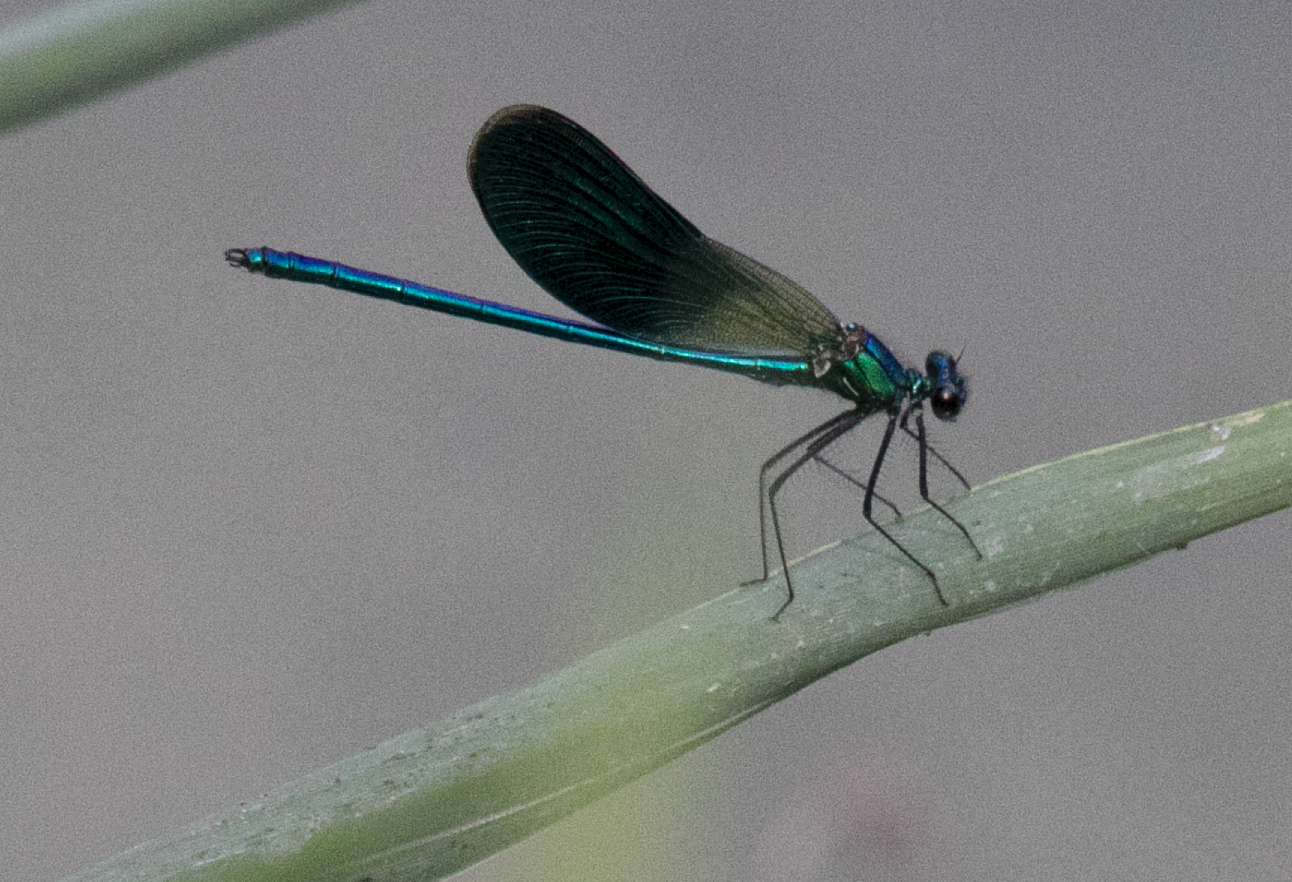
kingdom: Animalia
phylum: Arthropoda
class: Insecta
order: Odonata
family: Calopterygidae
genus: Calopteryx
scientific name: Calopteryx splendens
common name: Banded demoiselle
